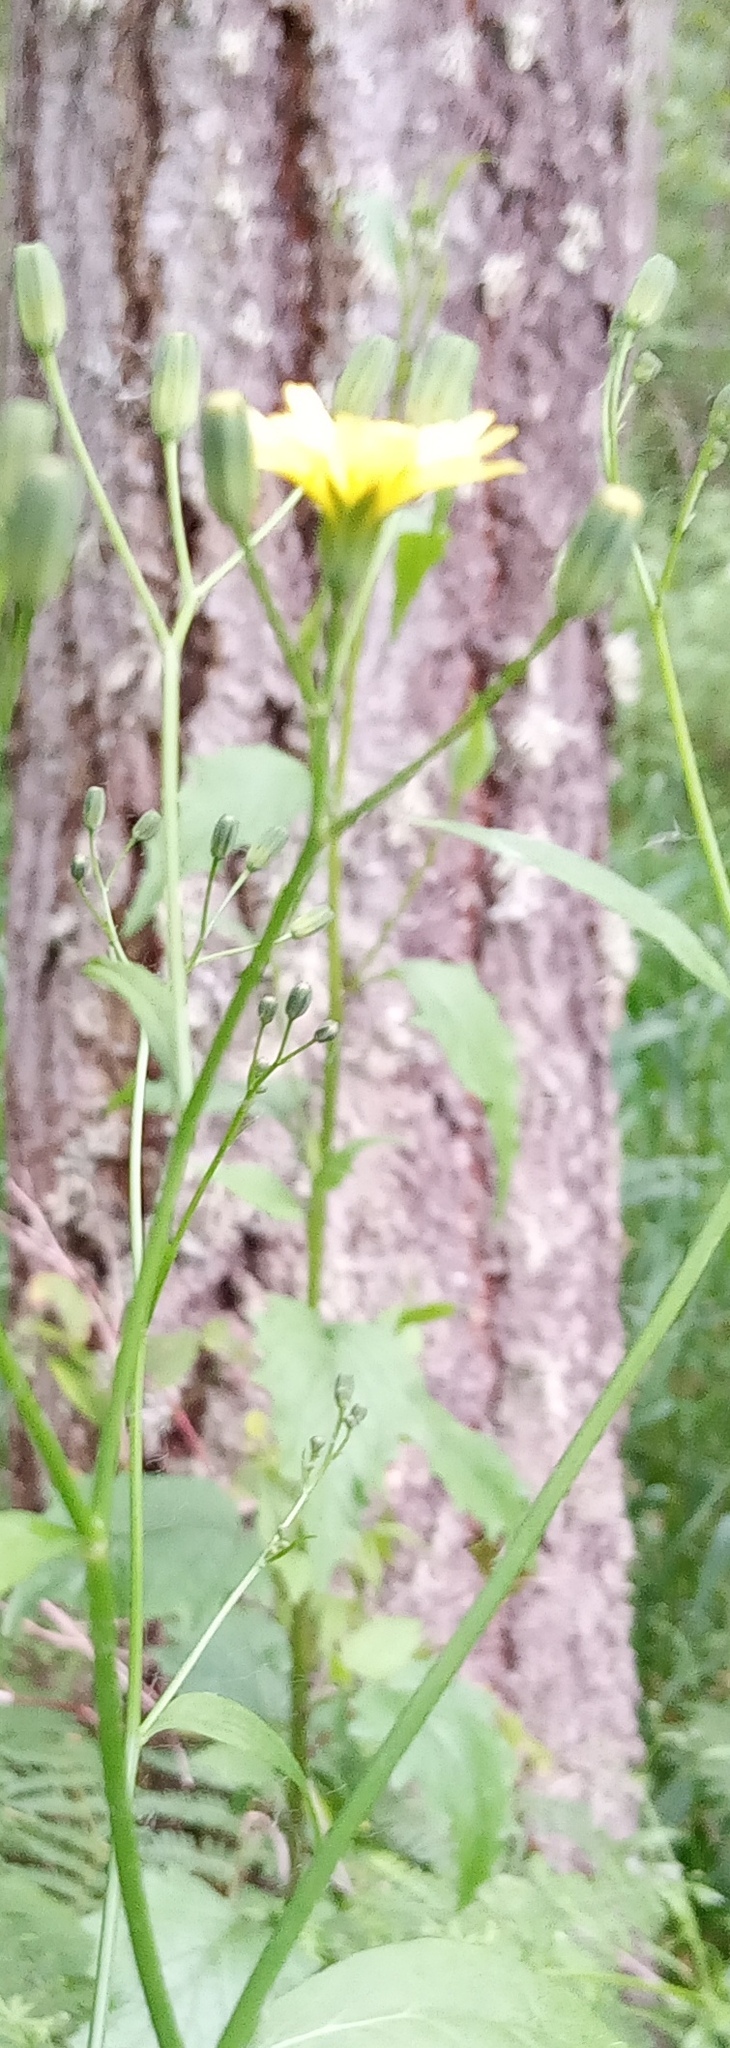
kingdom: Plantae
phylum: Tracheophyta
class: Magnoliopsida
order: Asterales
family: Asteraceae
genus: Lapsana
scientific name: Lapsana communis
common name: Nipplewort
